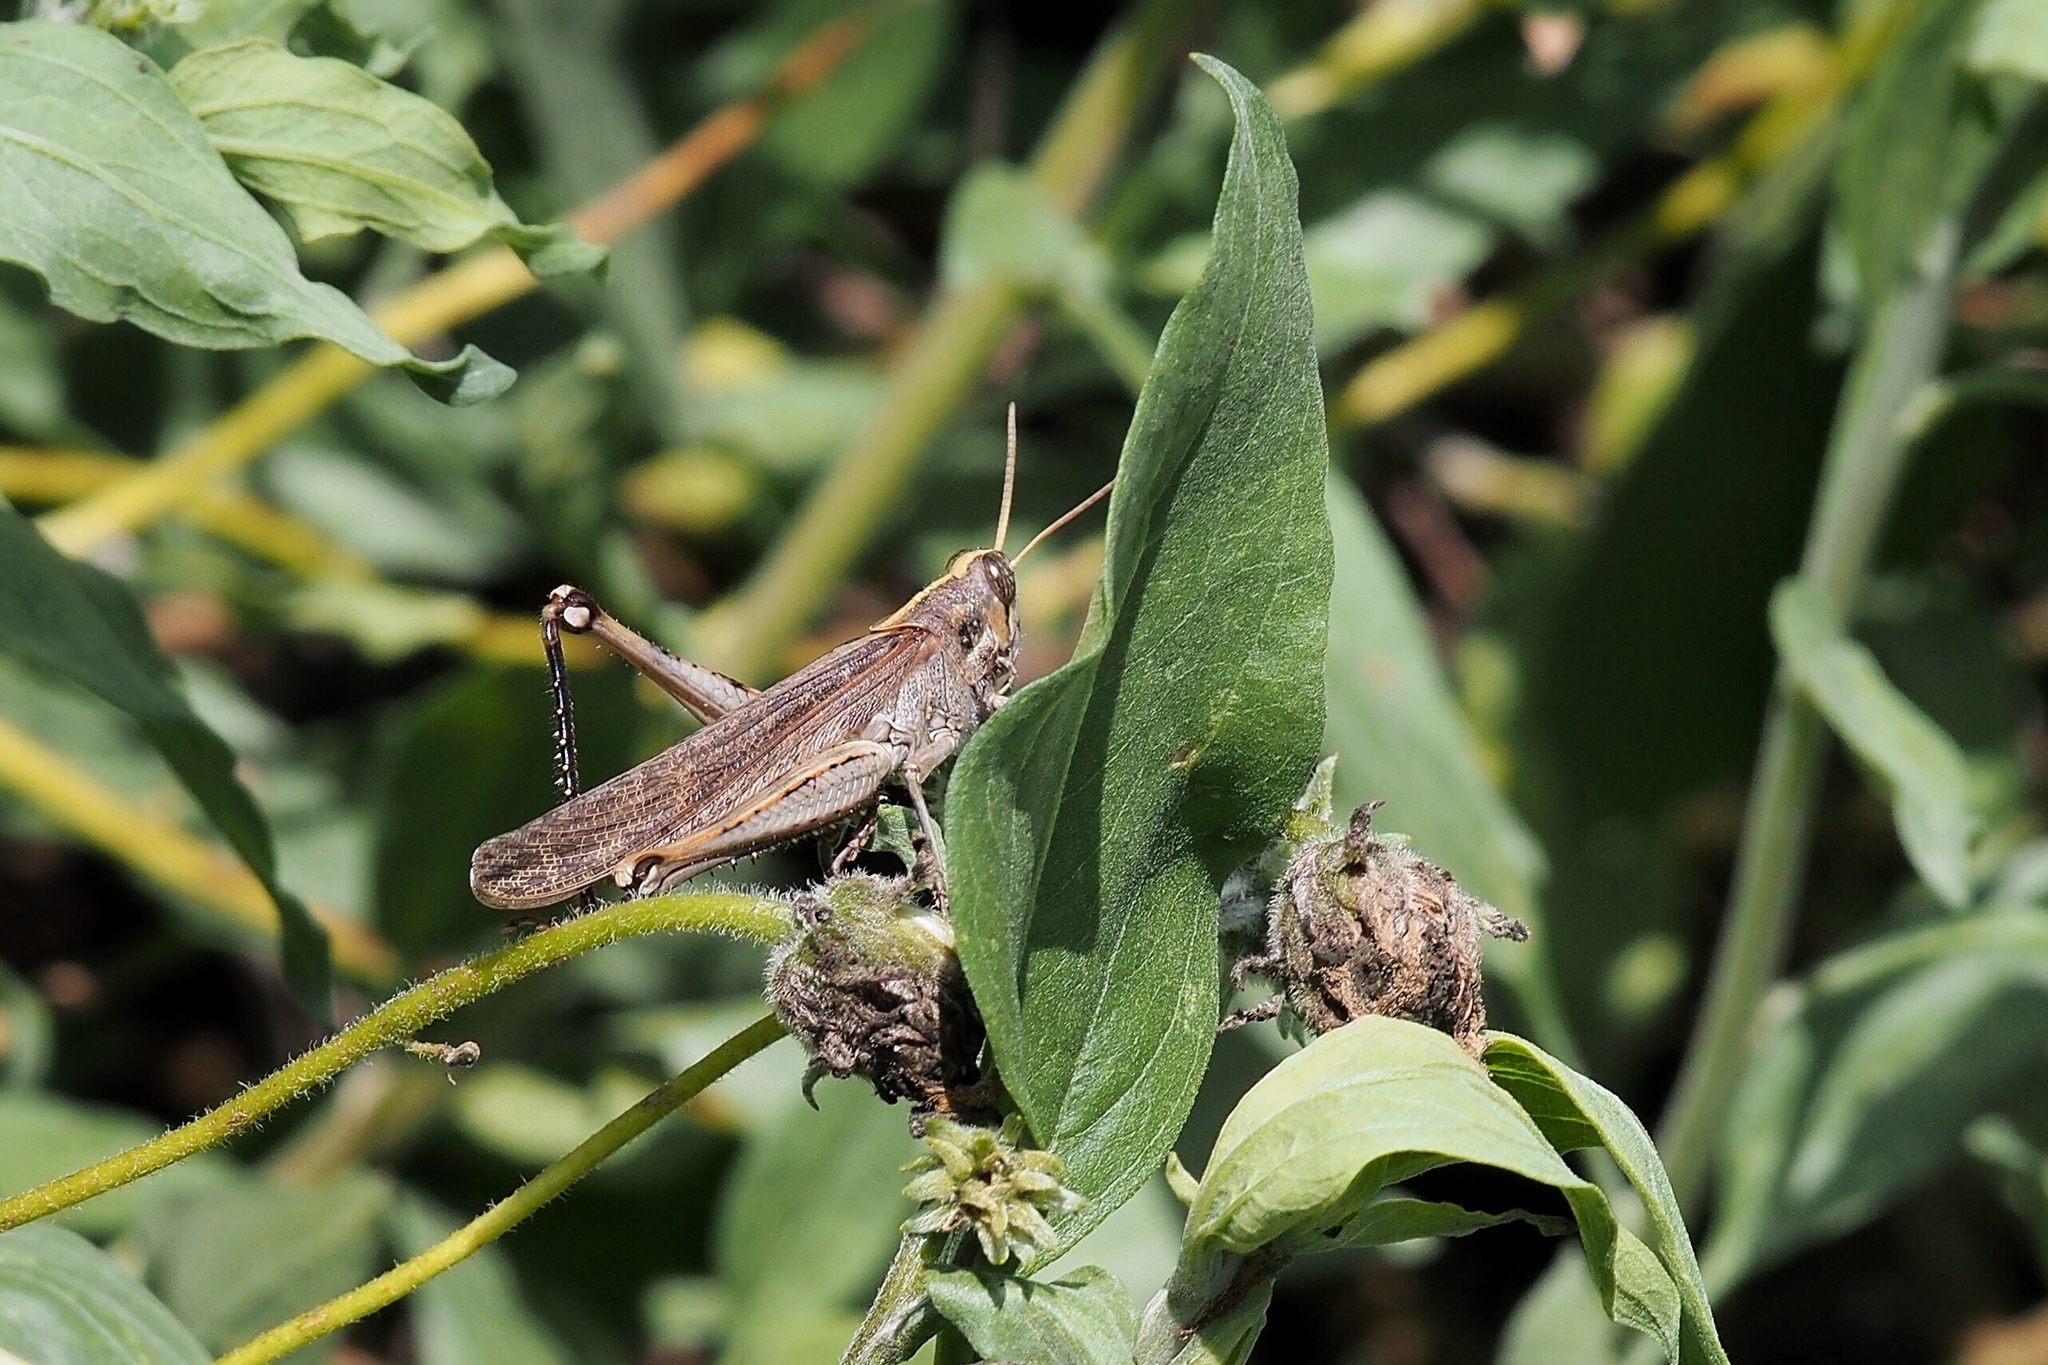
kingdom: Animalia
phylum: Arthropoda
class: Insecta
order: Orthoptera
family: Acrididae
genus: Schistocerca
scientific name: Schistocerca nitens
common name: Vagrant grasshopper
